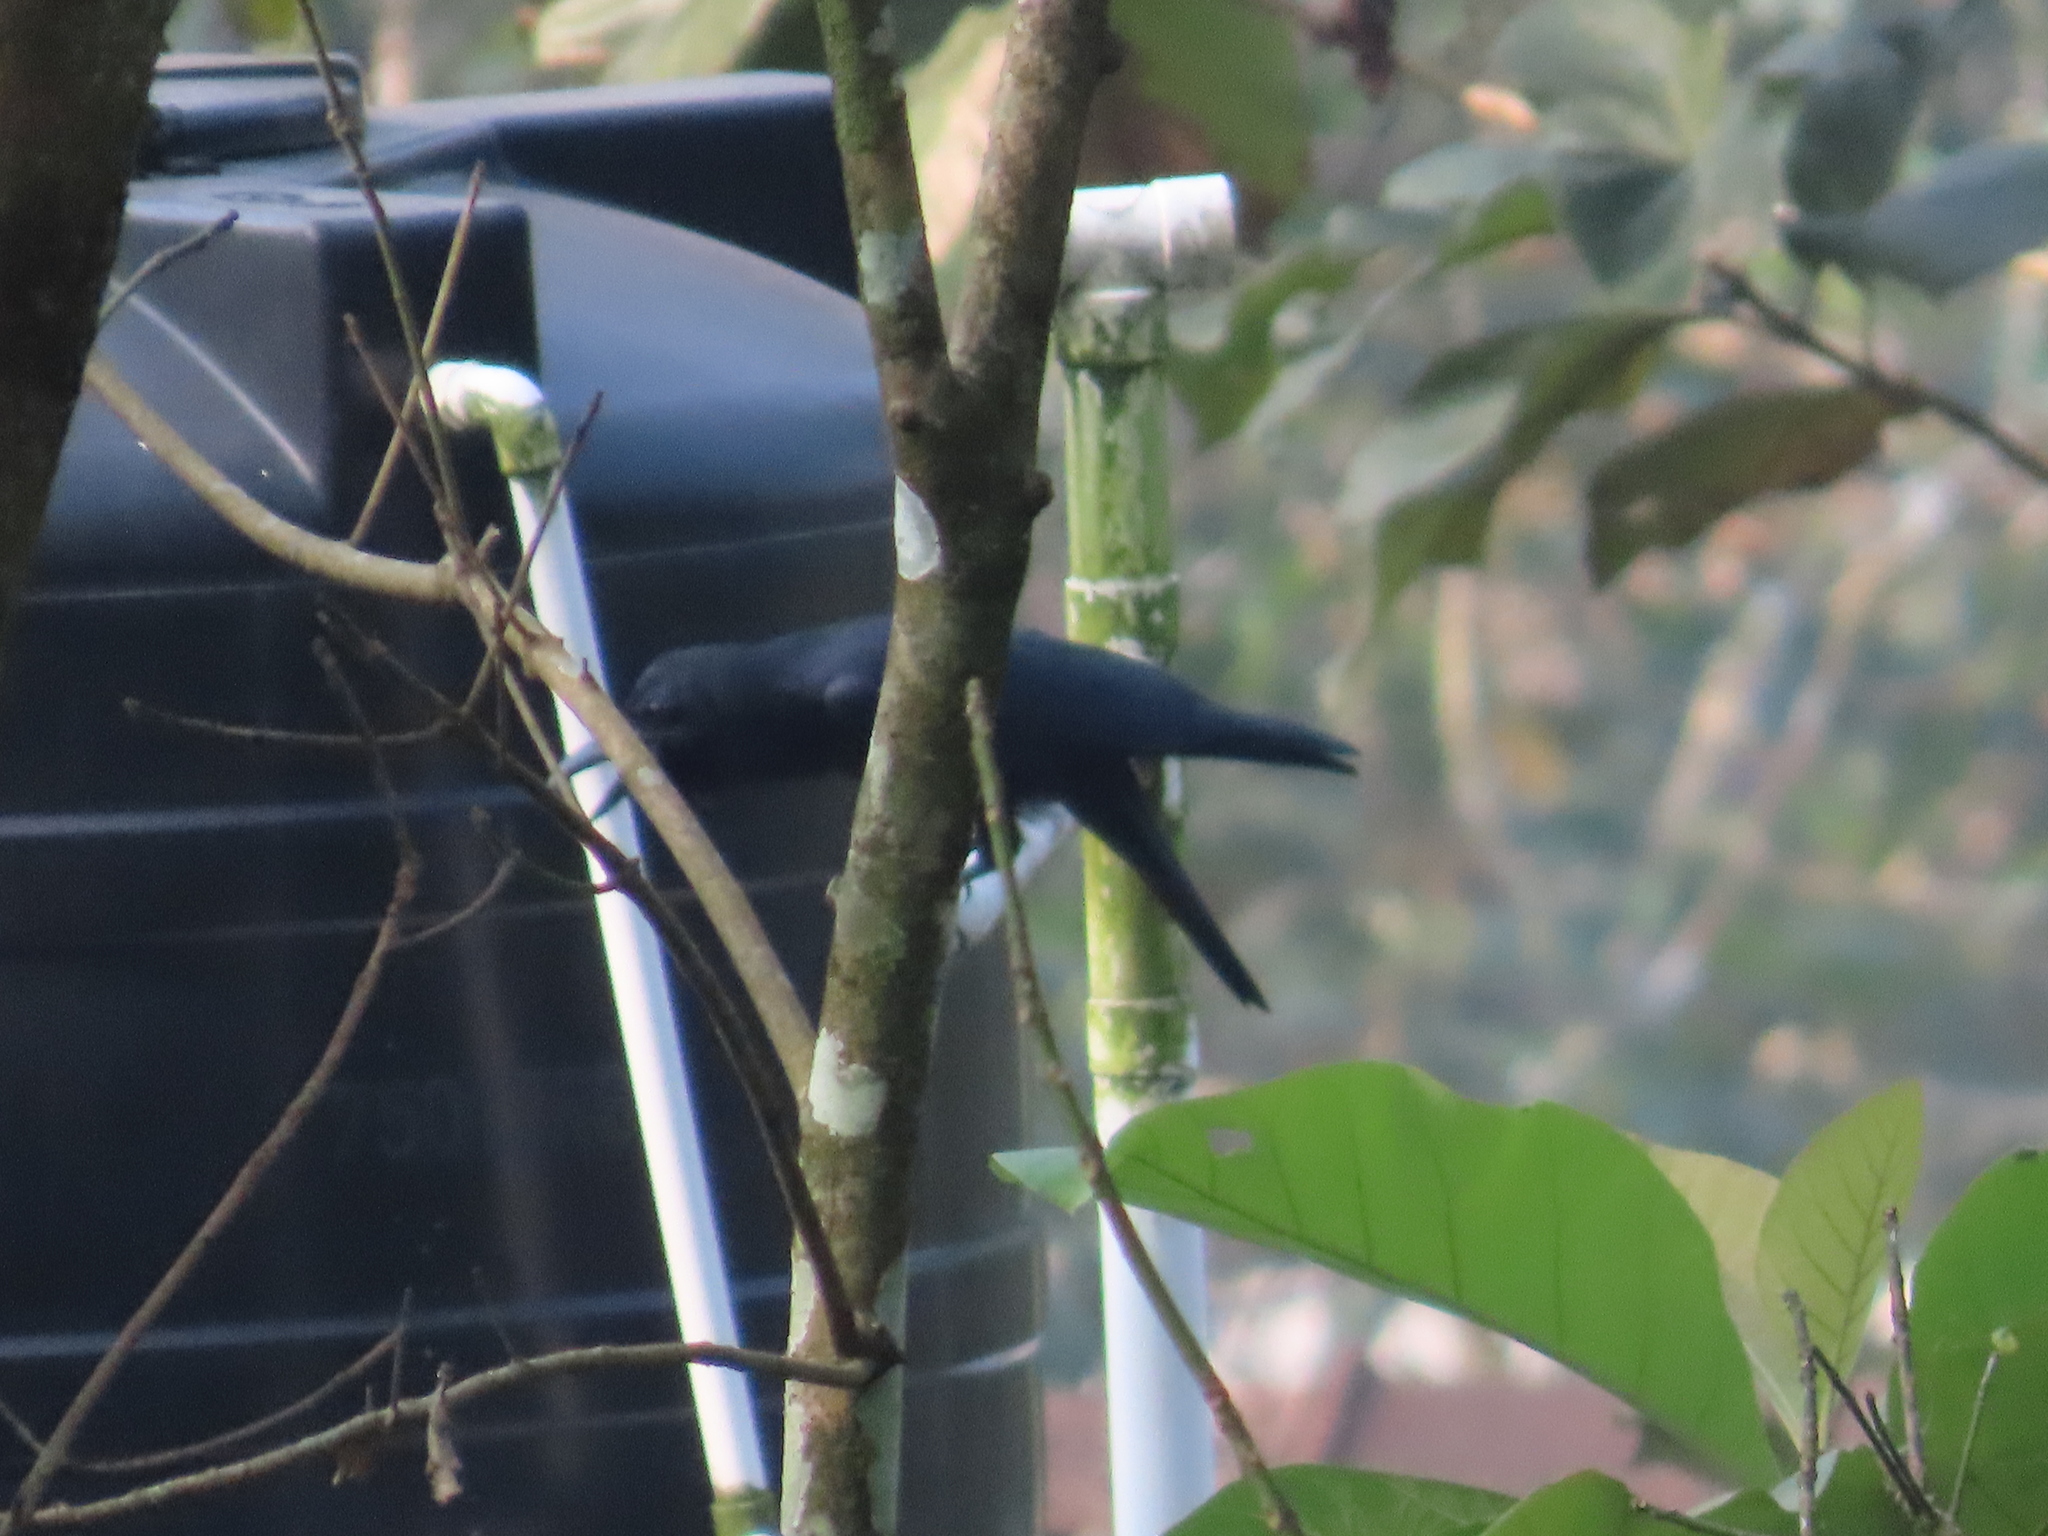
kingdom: Animalia
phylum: Chordata
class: Aves
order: Passeriformes
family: Corvidae
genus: Corvus
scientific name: Corvus macrorhynchos
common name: Large-billed crow
